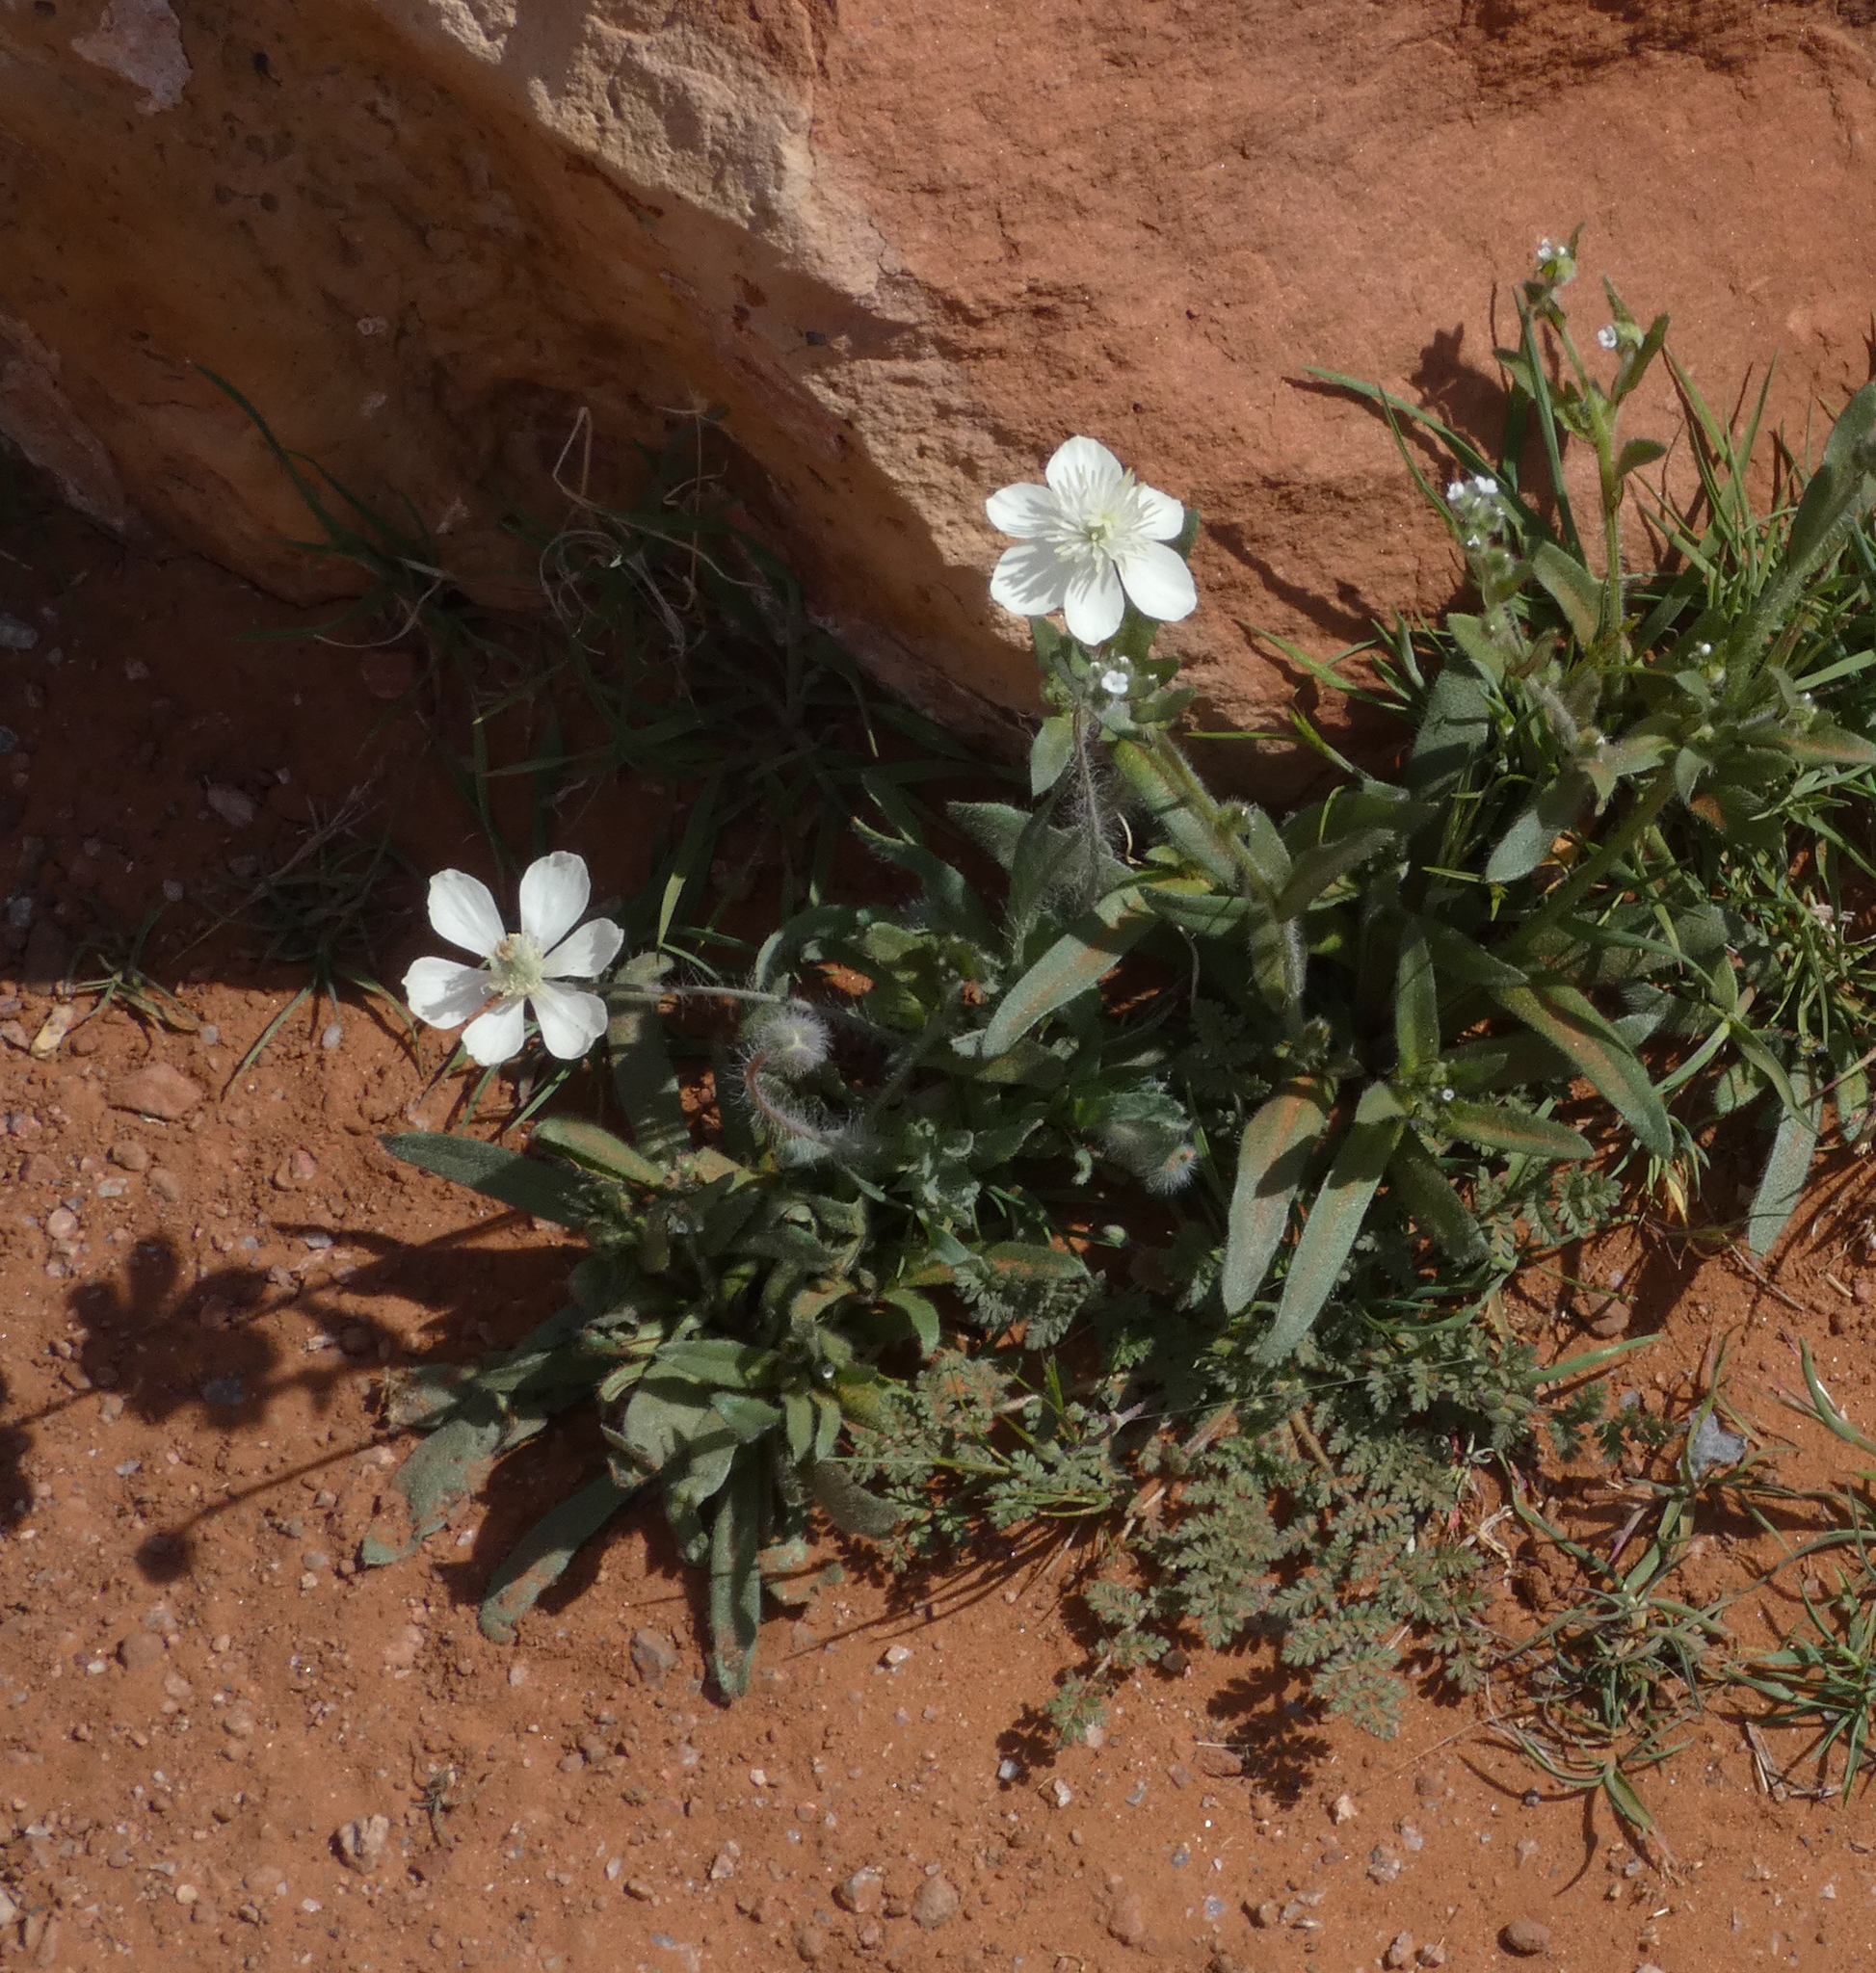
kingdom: Plantae
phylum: Tracheophyta
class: Magnoliopsida
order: Ranunculales
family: Papaveraceae
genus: Platystemon
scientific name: Platystemon californicus
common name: Cream-cups
